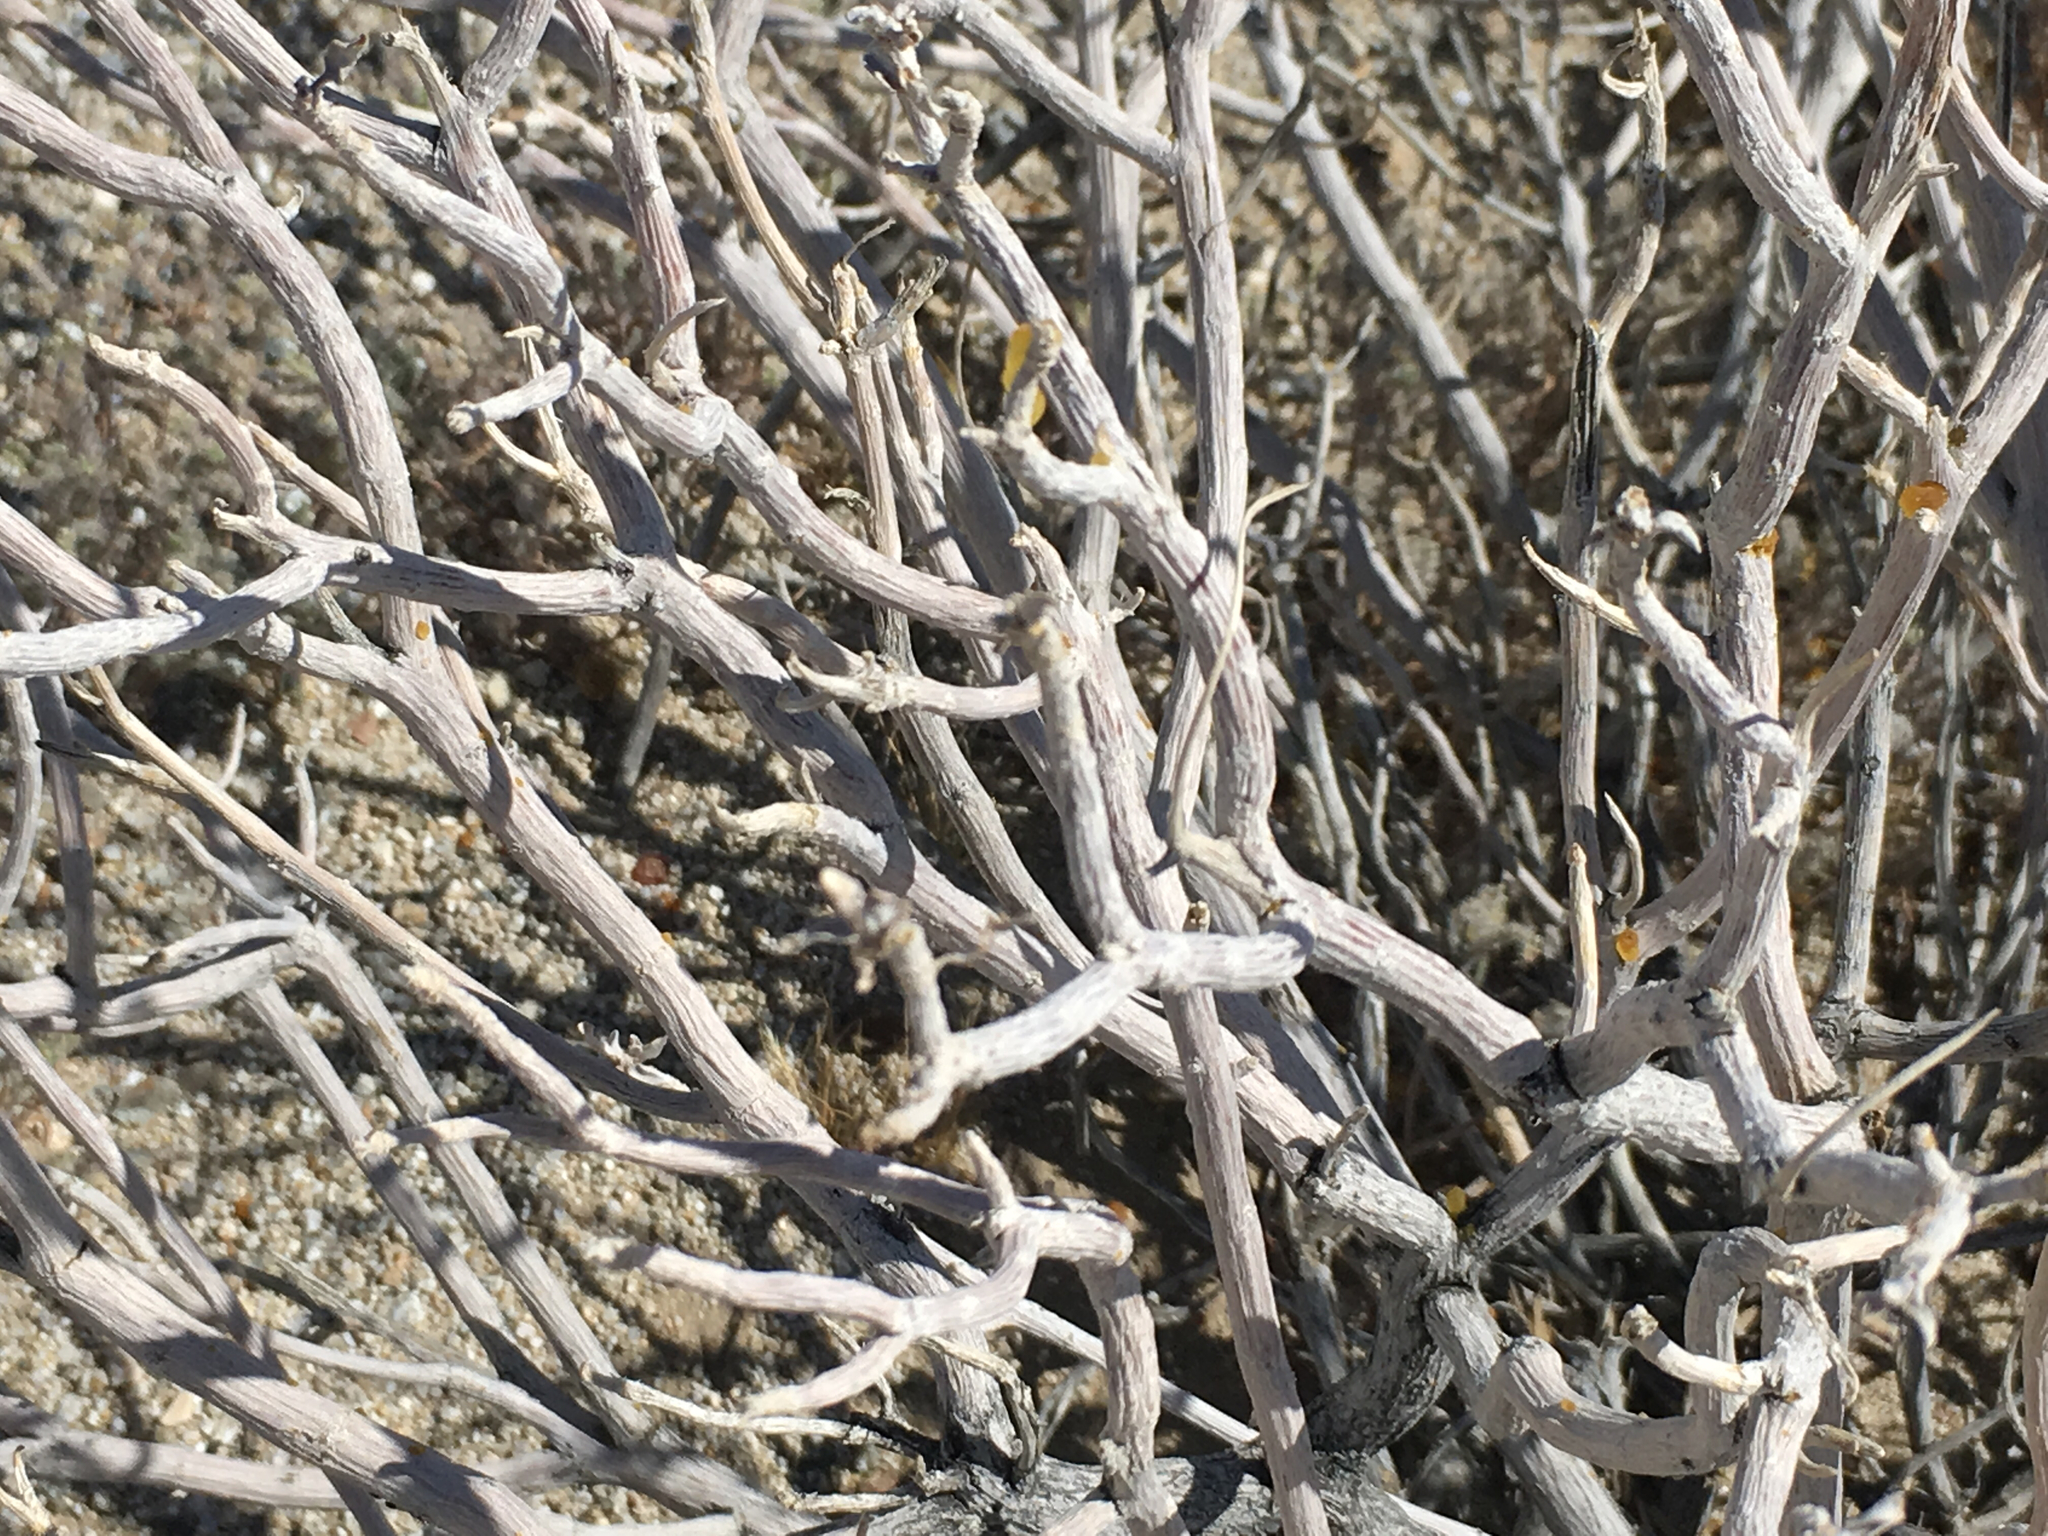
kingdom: Plantae
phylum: Tracheophyta
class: Magnoliopsida
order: Asterales
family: Asteraceae
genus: Encelia
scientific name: Encelia farinosa
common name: Brittlebush
